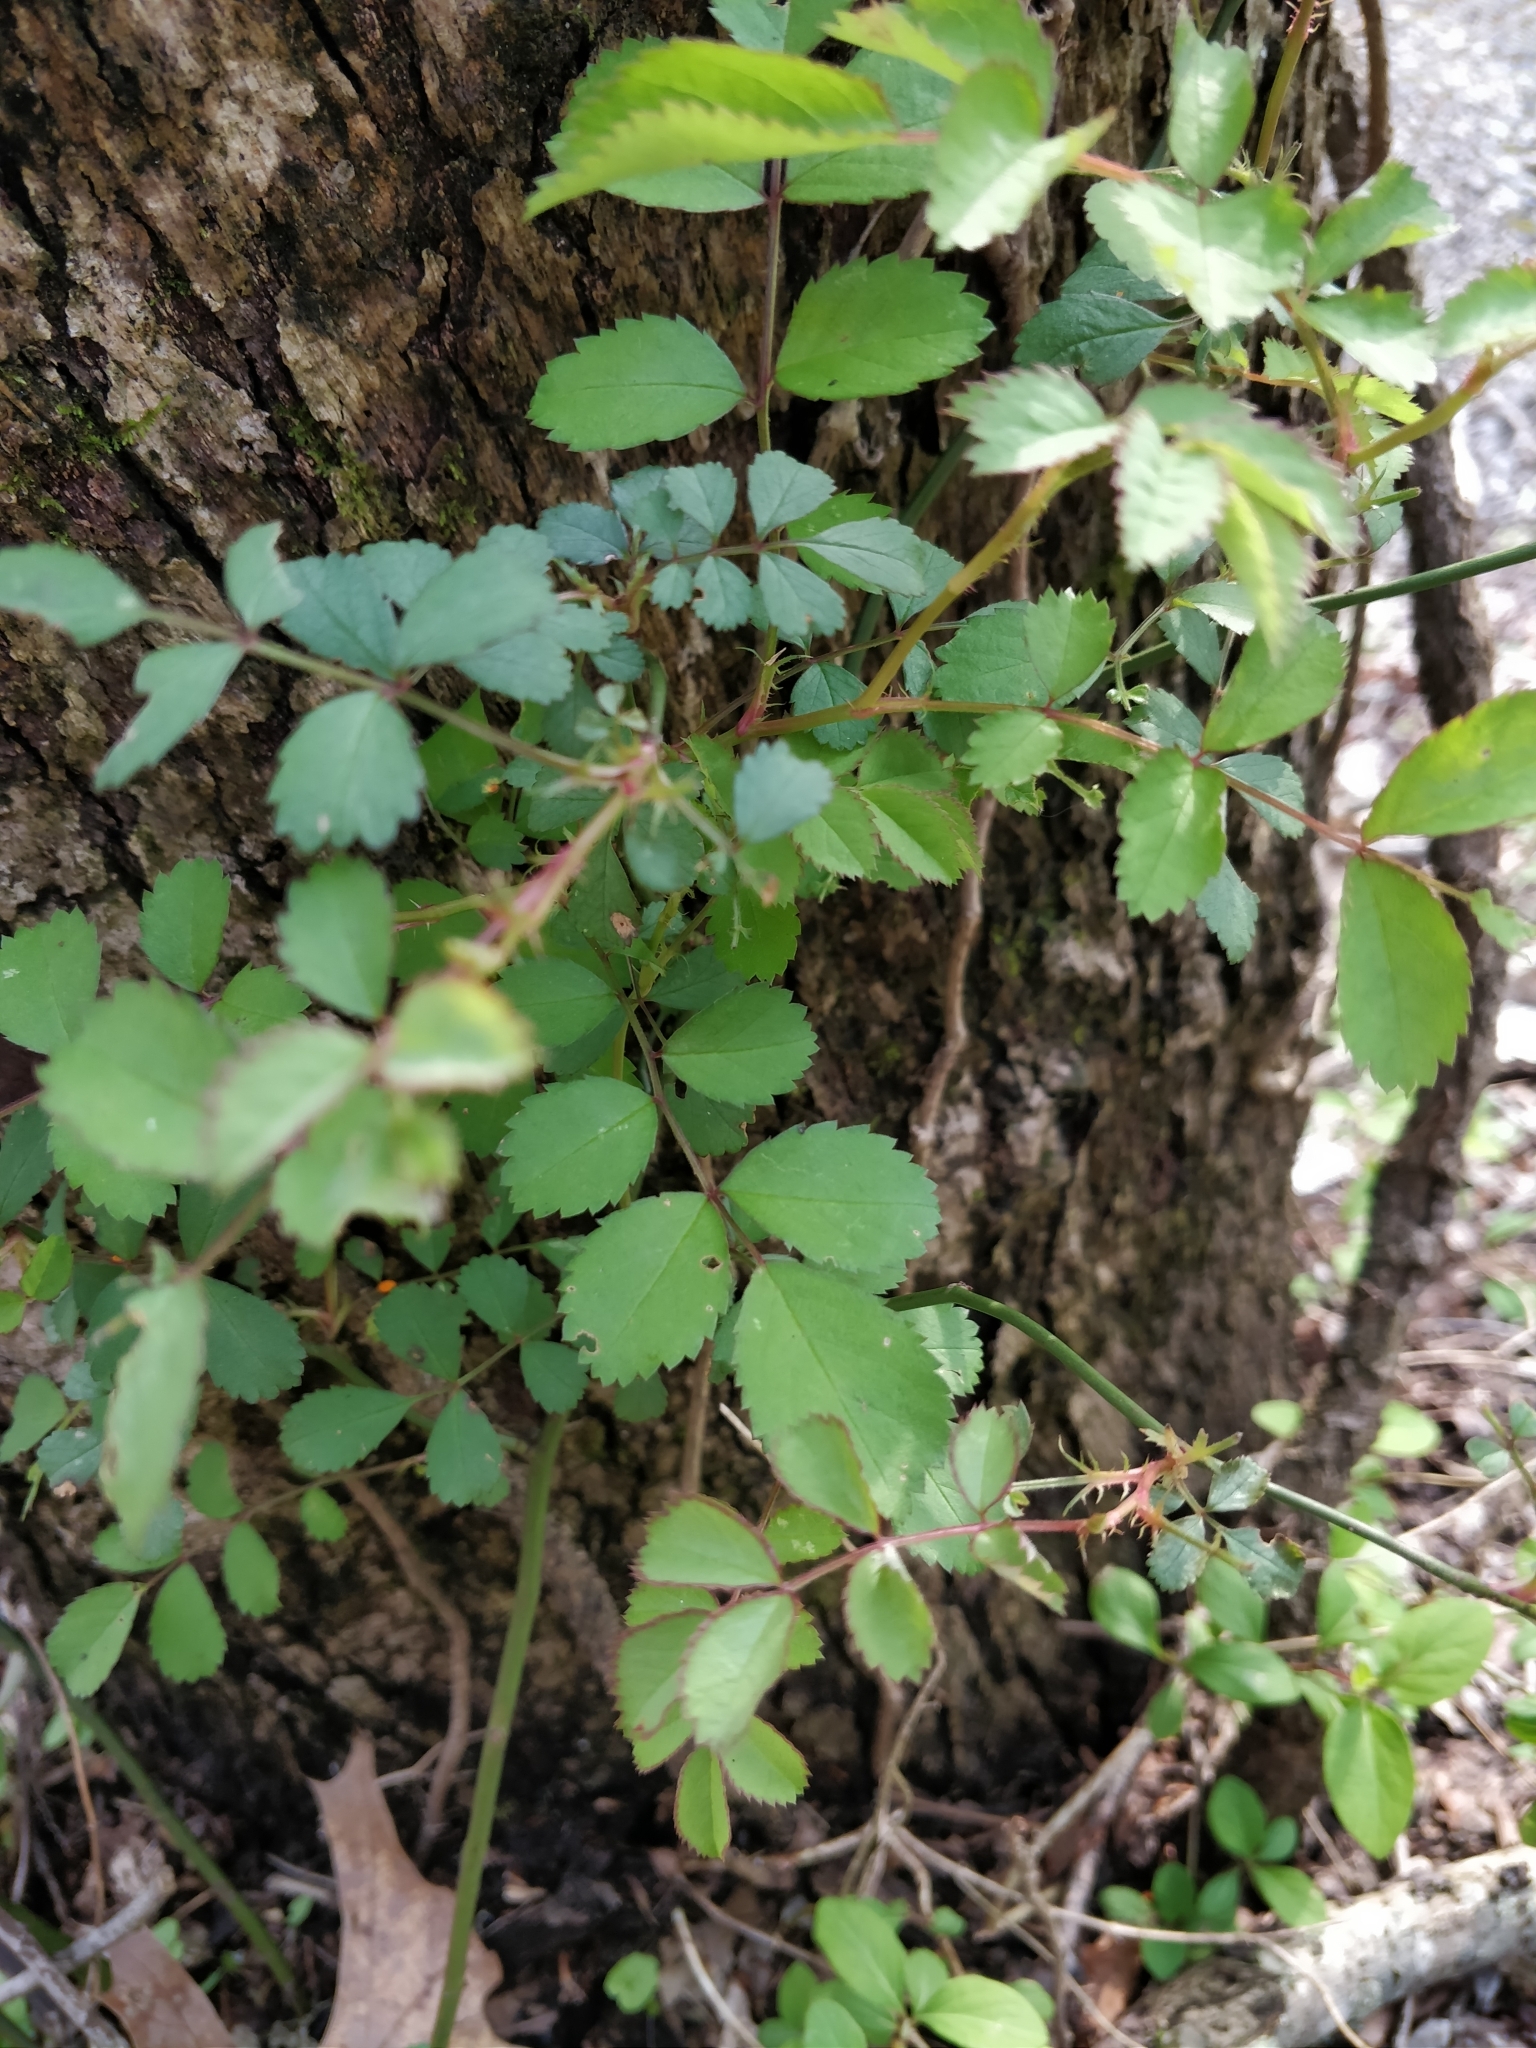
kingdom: Plantae
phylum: Tracheophyta
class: Magnoliopsida
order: Rosales
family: Rosaceae
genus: Rosa
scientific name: Rosa multiflora
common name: Multiflora rose
